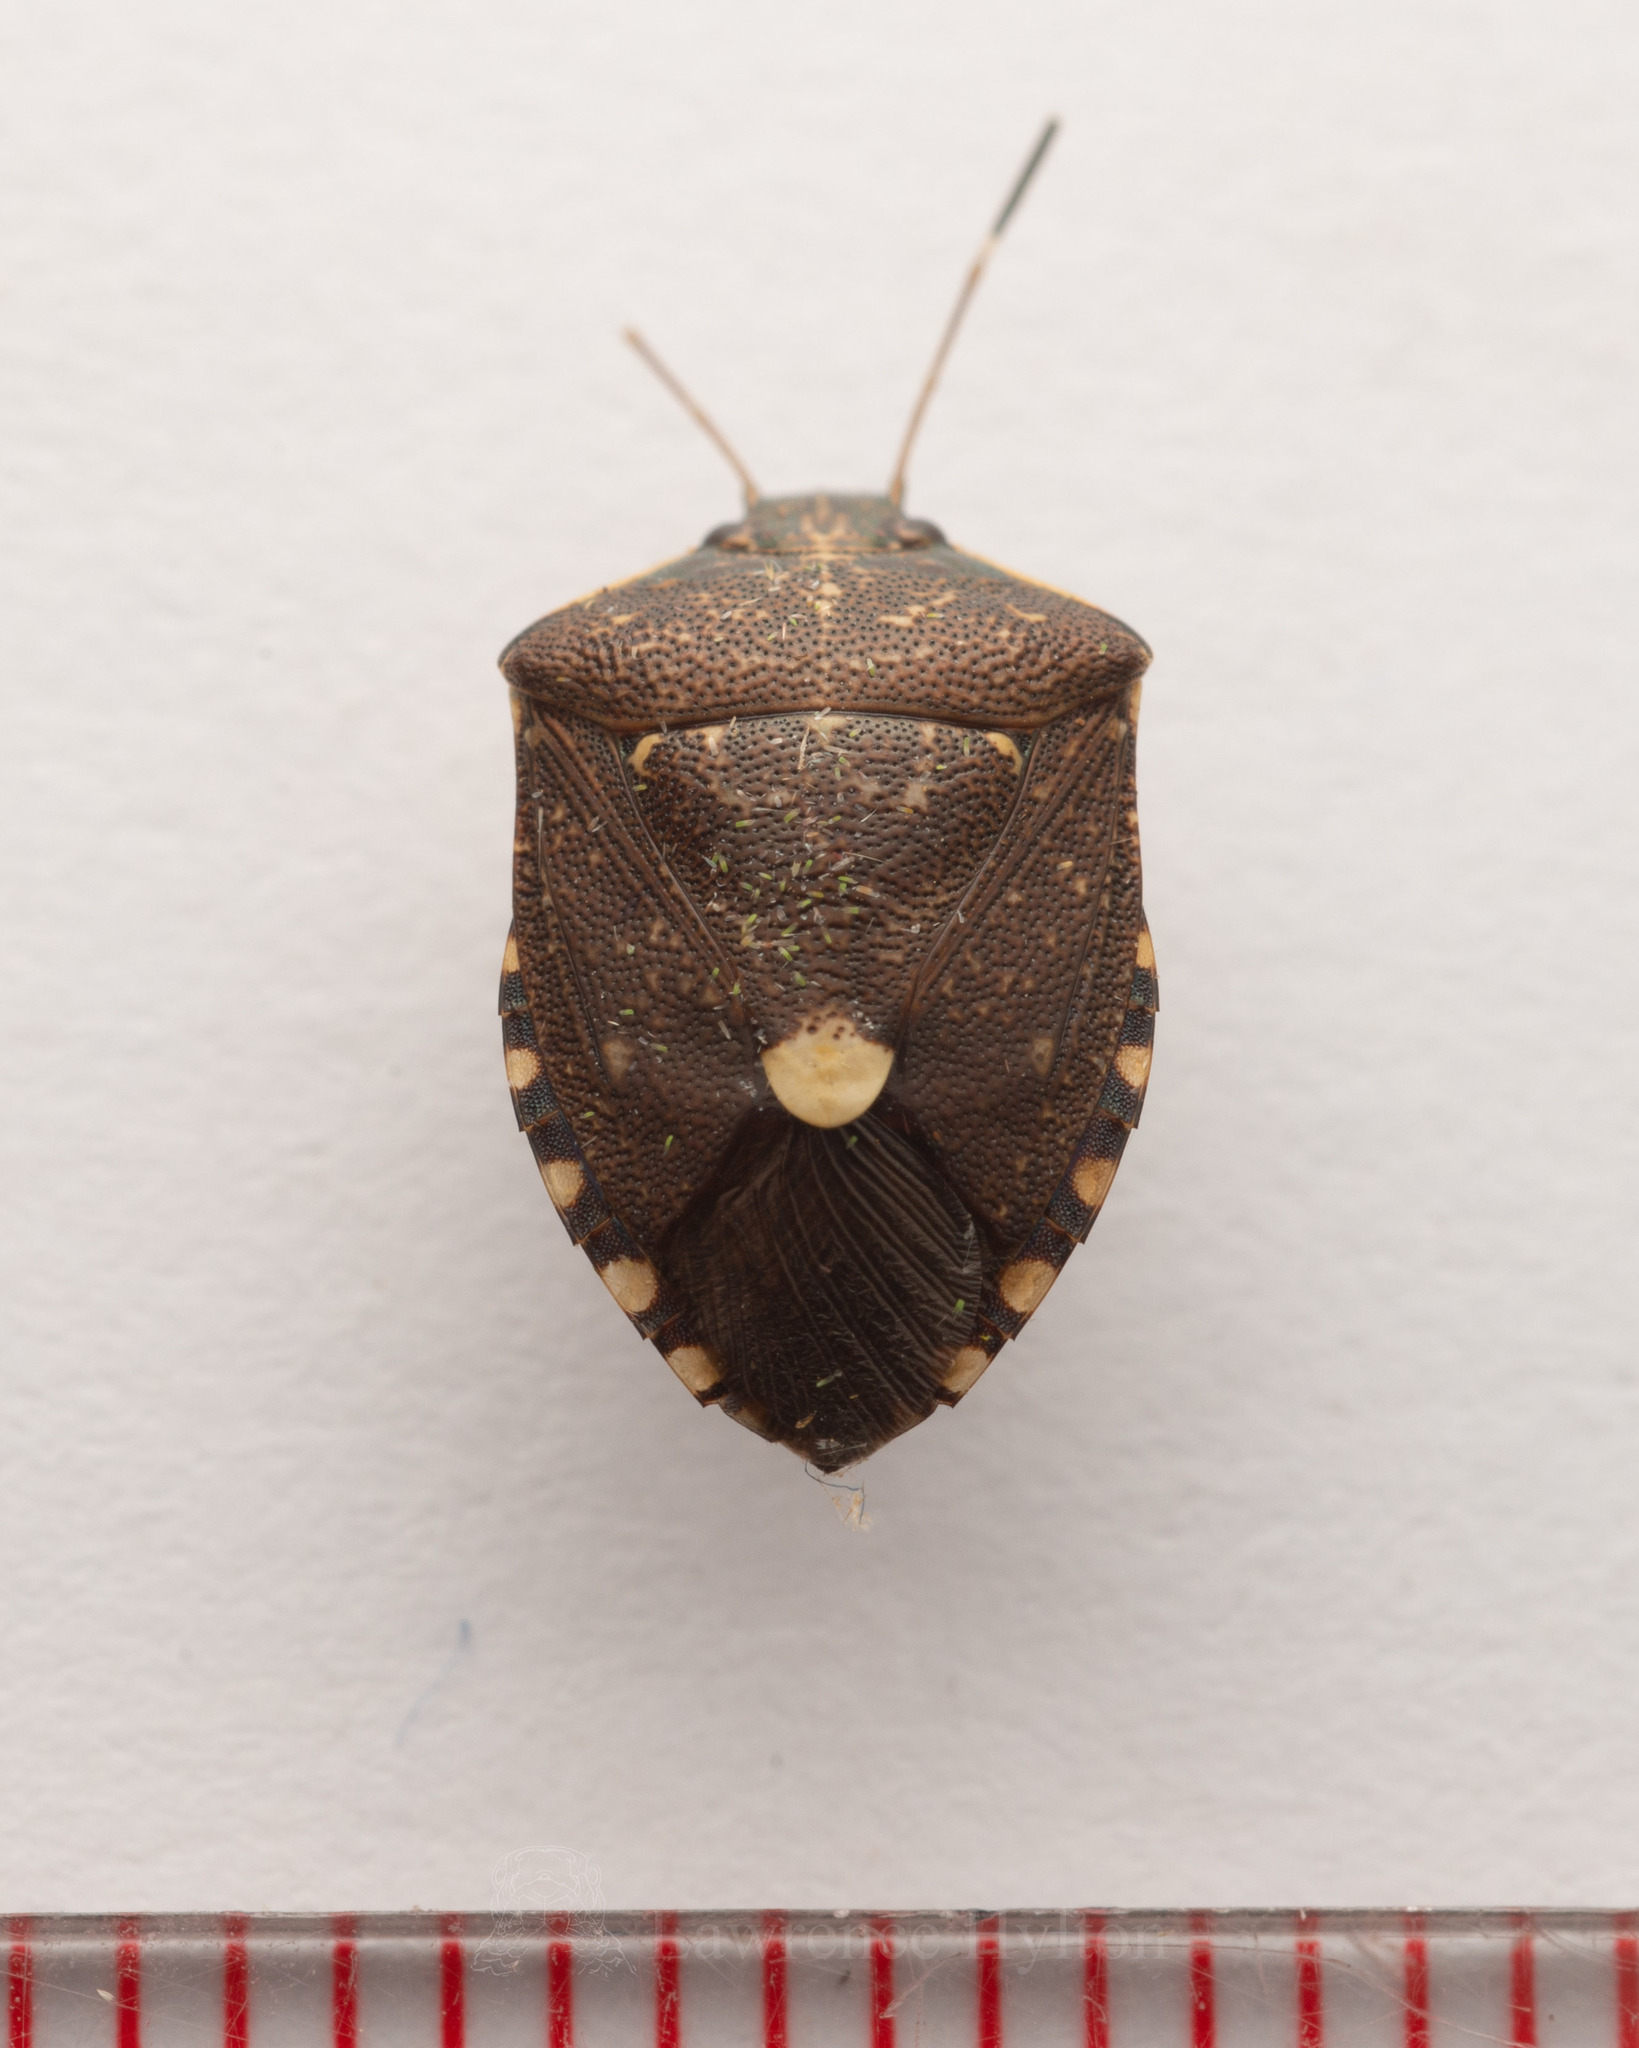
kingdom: Animalia
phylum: Arthropoda
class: Insecta
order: Hemiptera
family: Pentatomidae
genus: Tolumnia
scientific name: Tolumnia latipes
